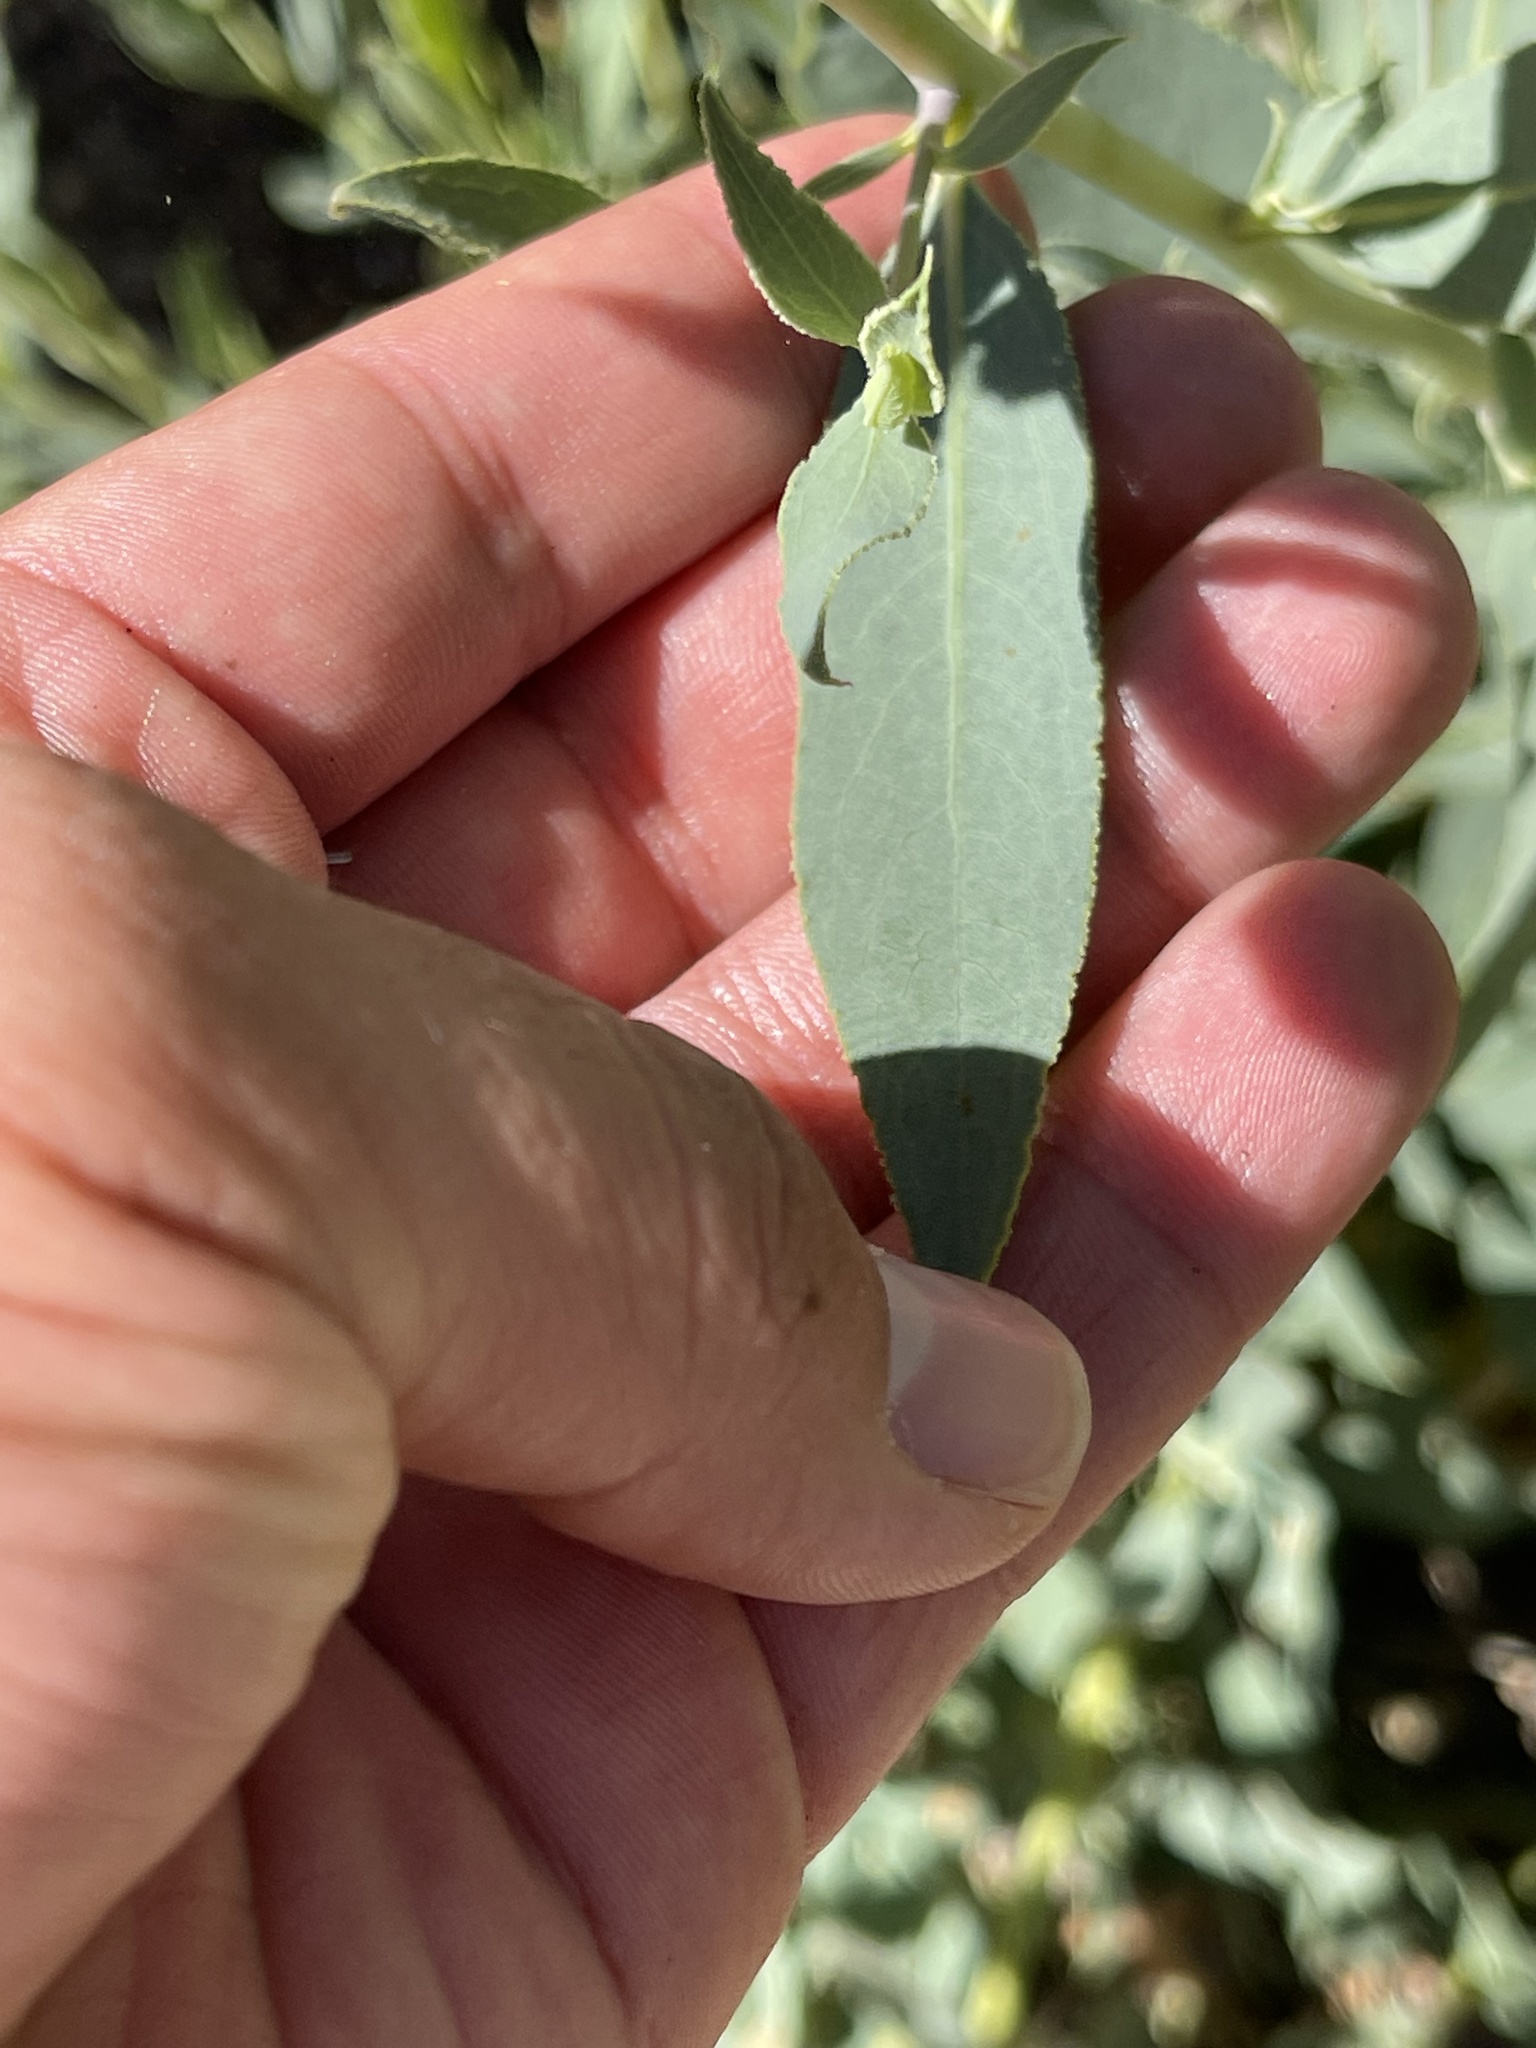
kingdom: Plantae
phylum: Tracheophyta
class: Magnoliopsida
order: Ranunculales
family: Papaveraceae
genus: Dendromecon
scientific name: Dendromecon rigida
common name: Tree poppy
